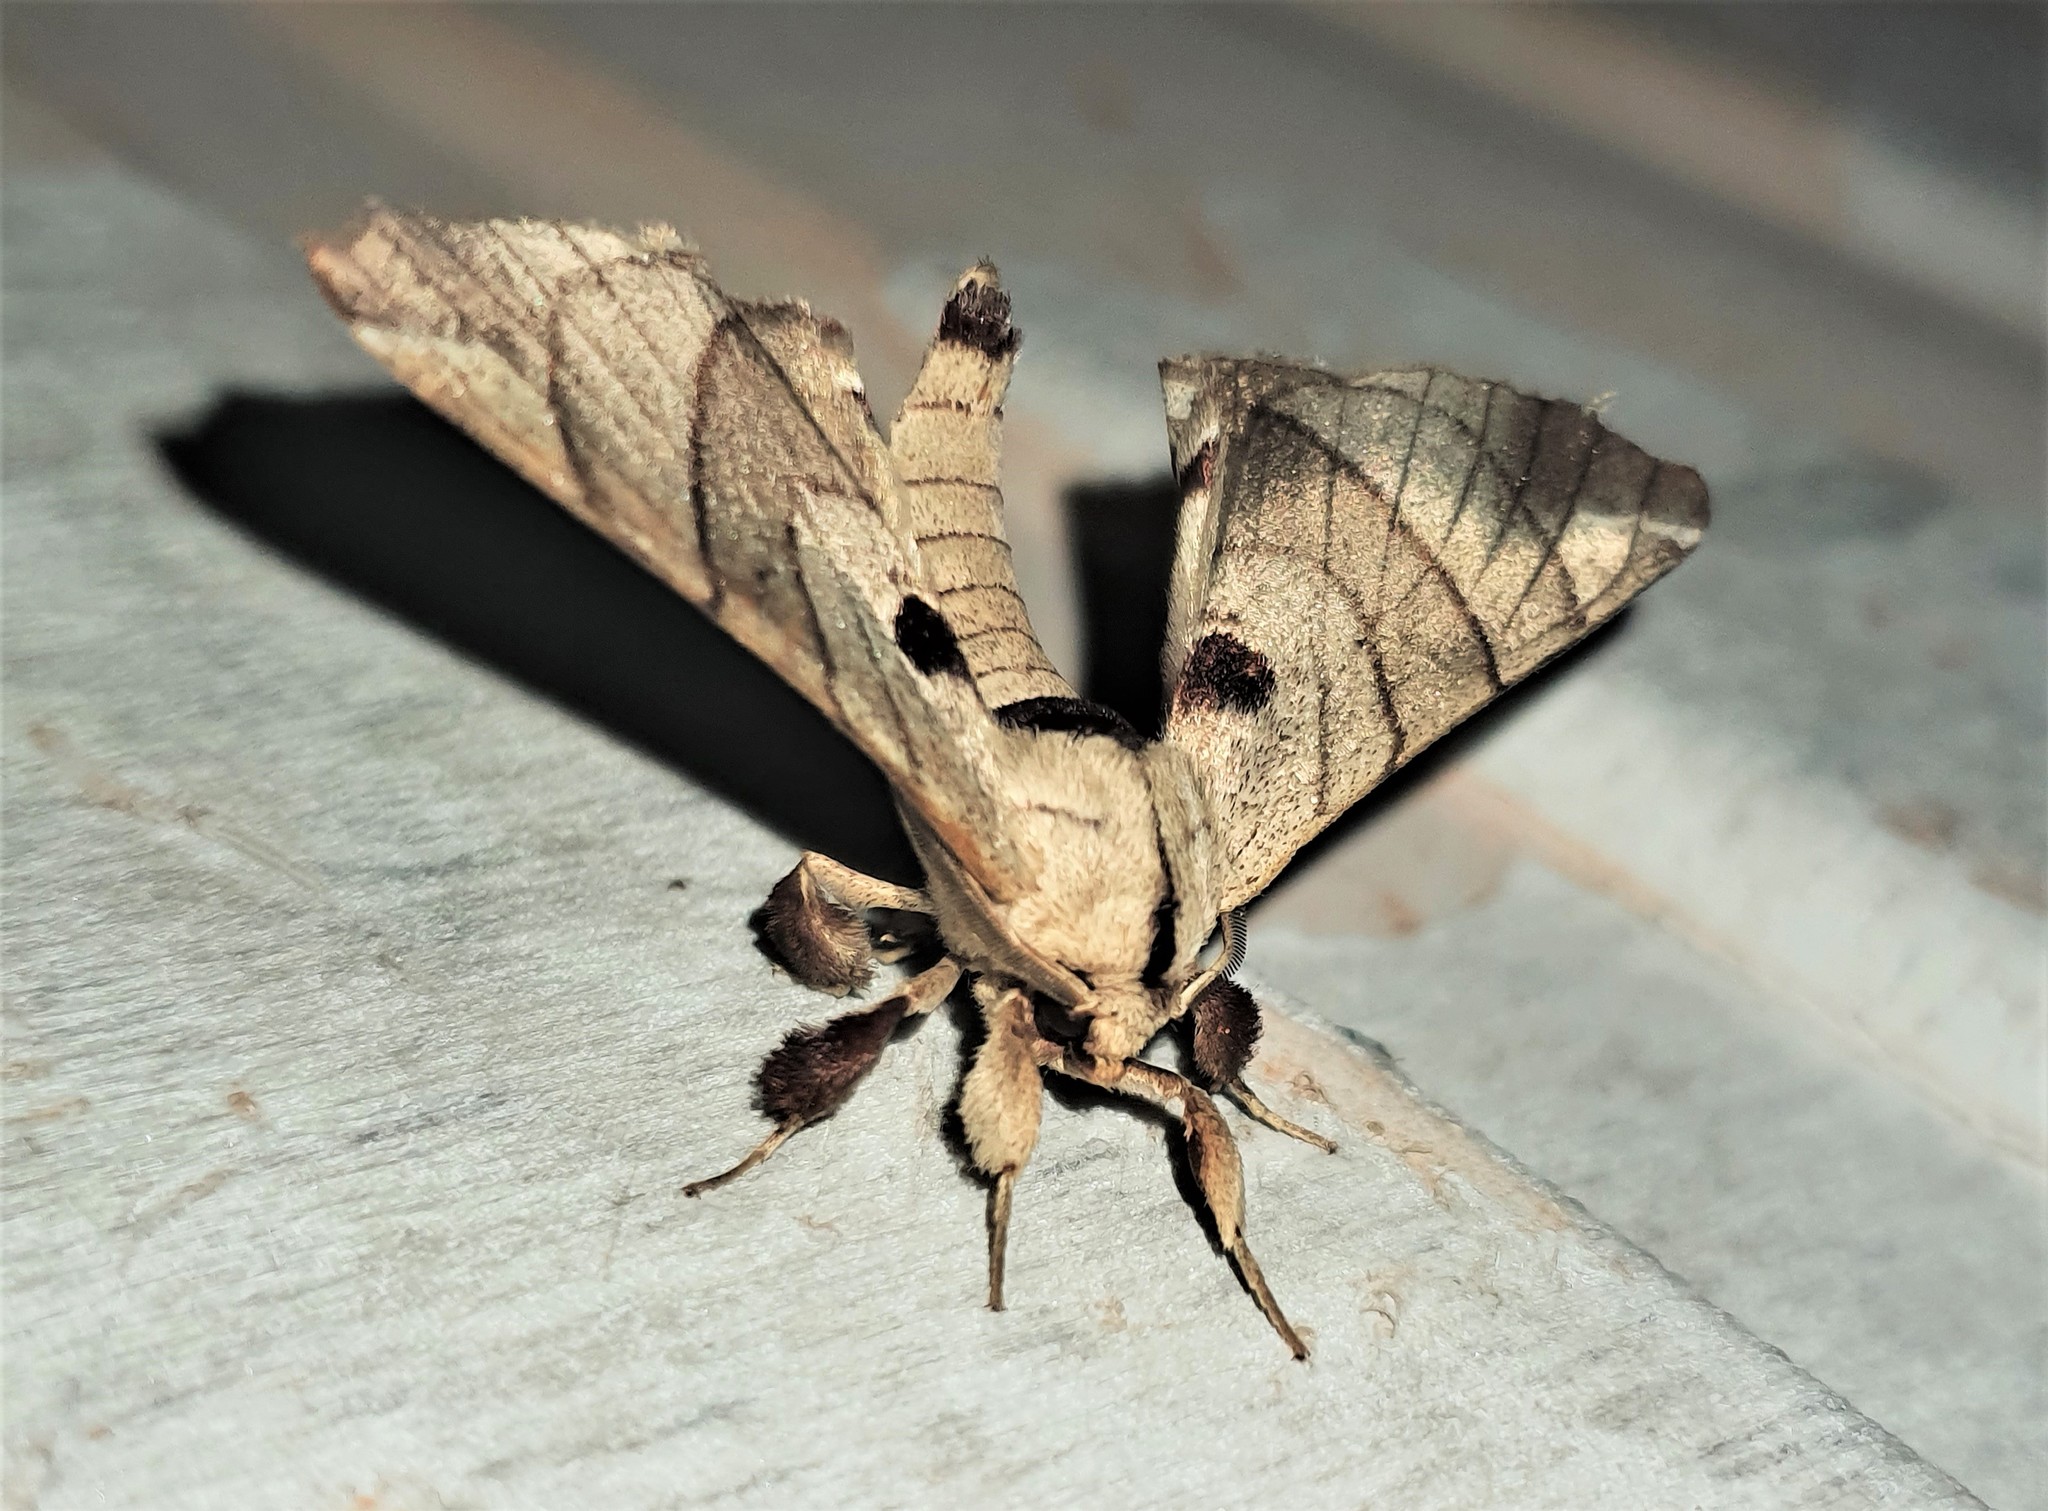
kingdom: Animalia
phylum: Arthropoda
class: Insecta
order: Lepidoptera
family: Apatelodidae
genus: Hygrochroa
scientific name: Hygrochroa firmiana
